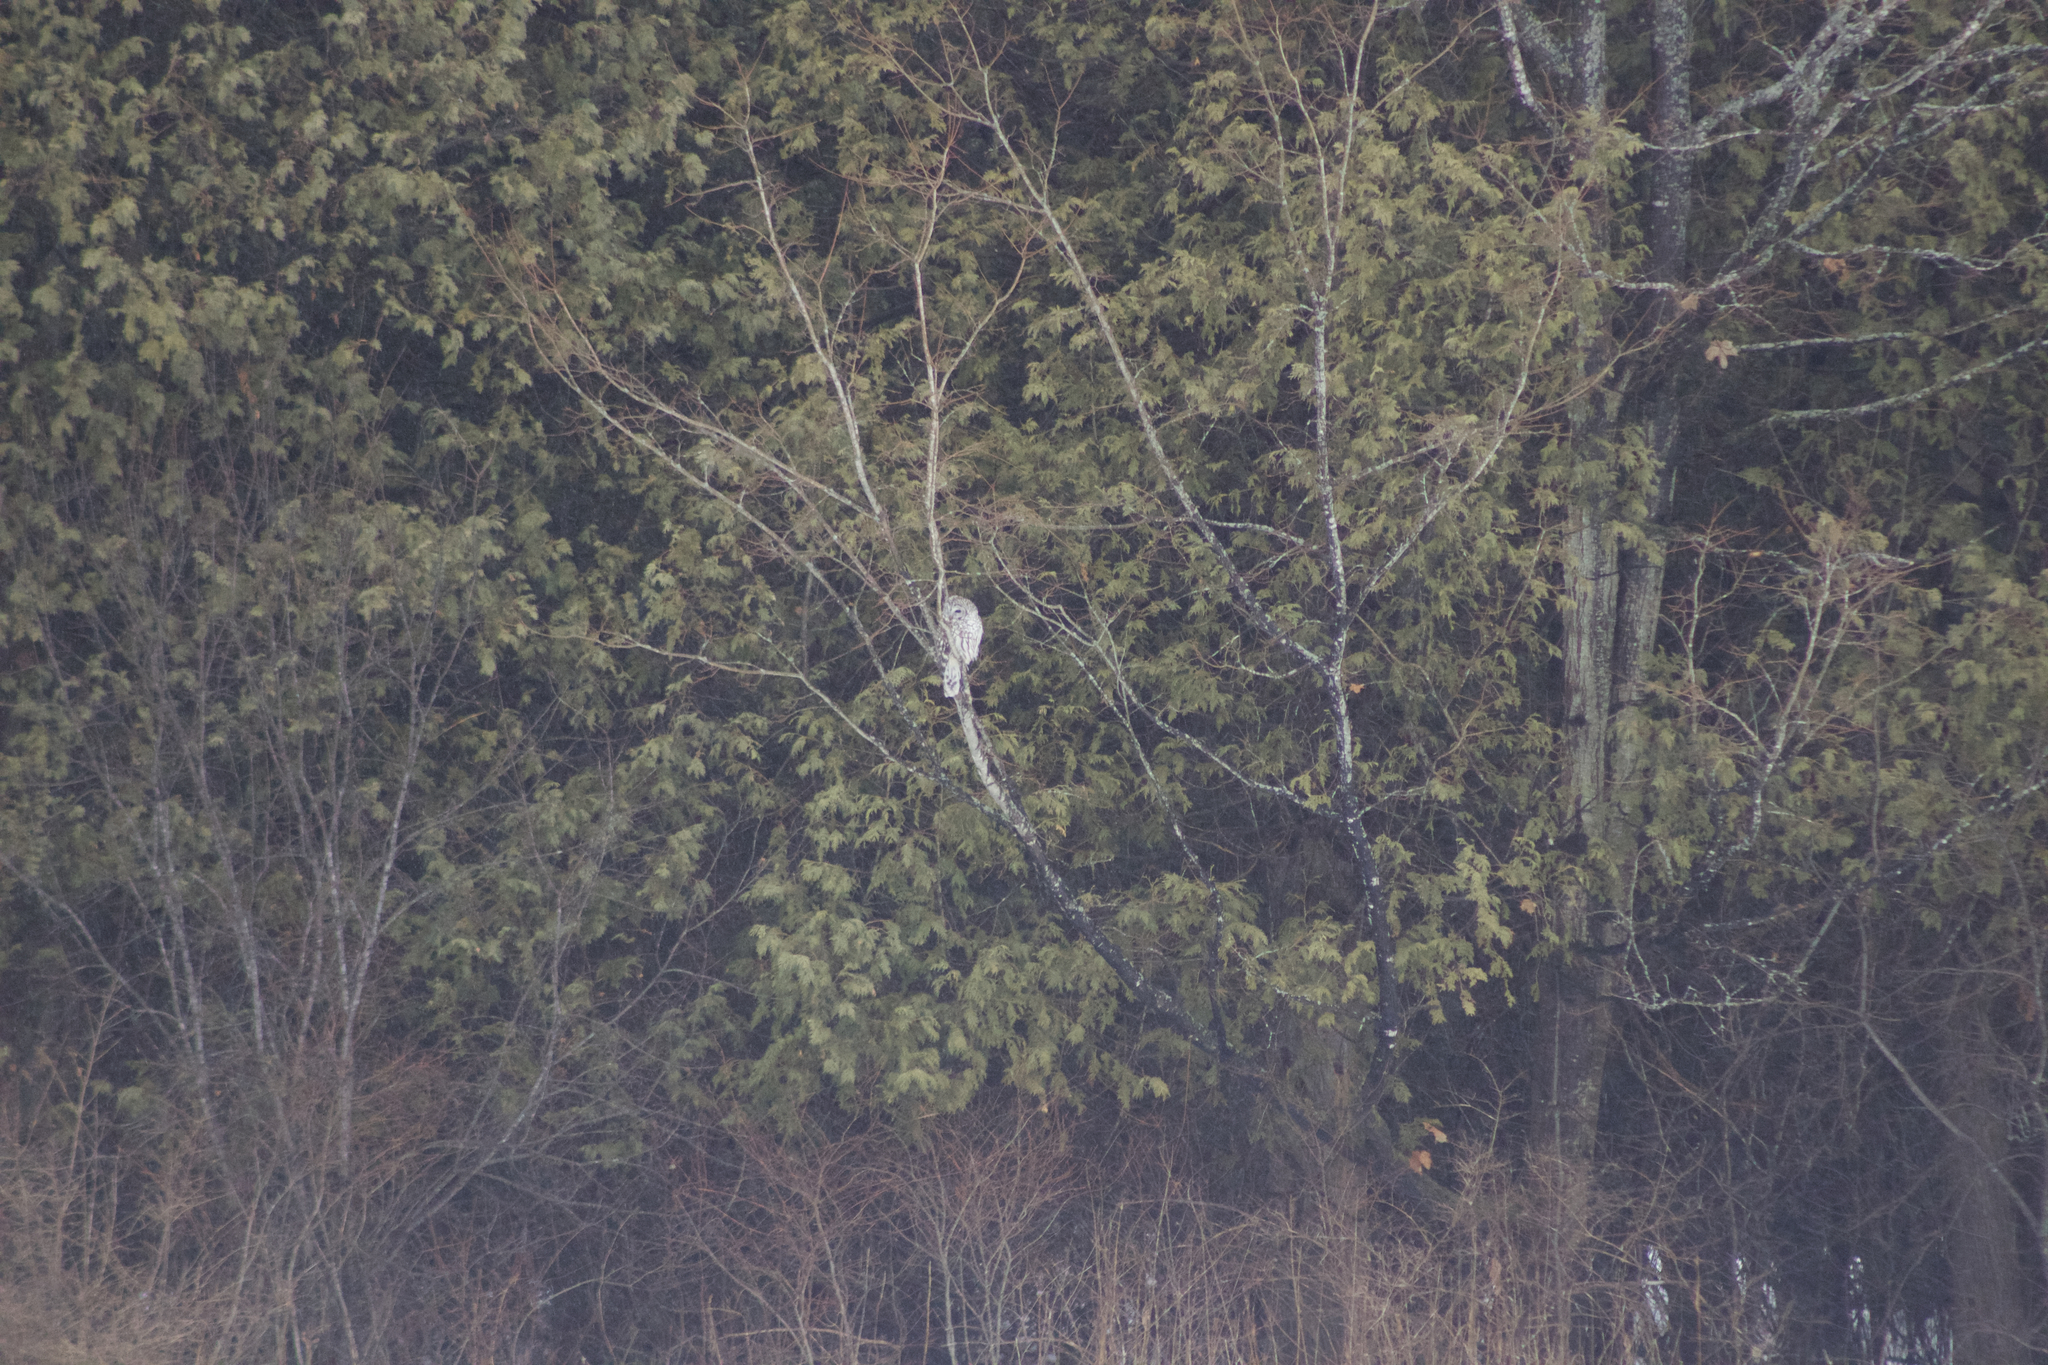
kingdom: Animalia
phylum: Chordata
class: Aves
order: Strigiformes
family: Strigidae
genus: Strix
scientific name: Strix varia
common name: Barred owl
